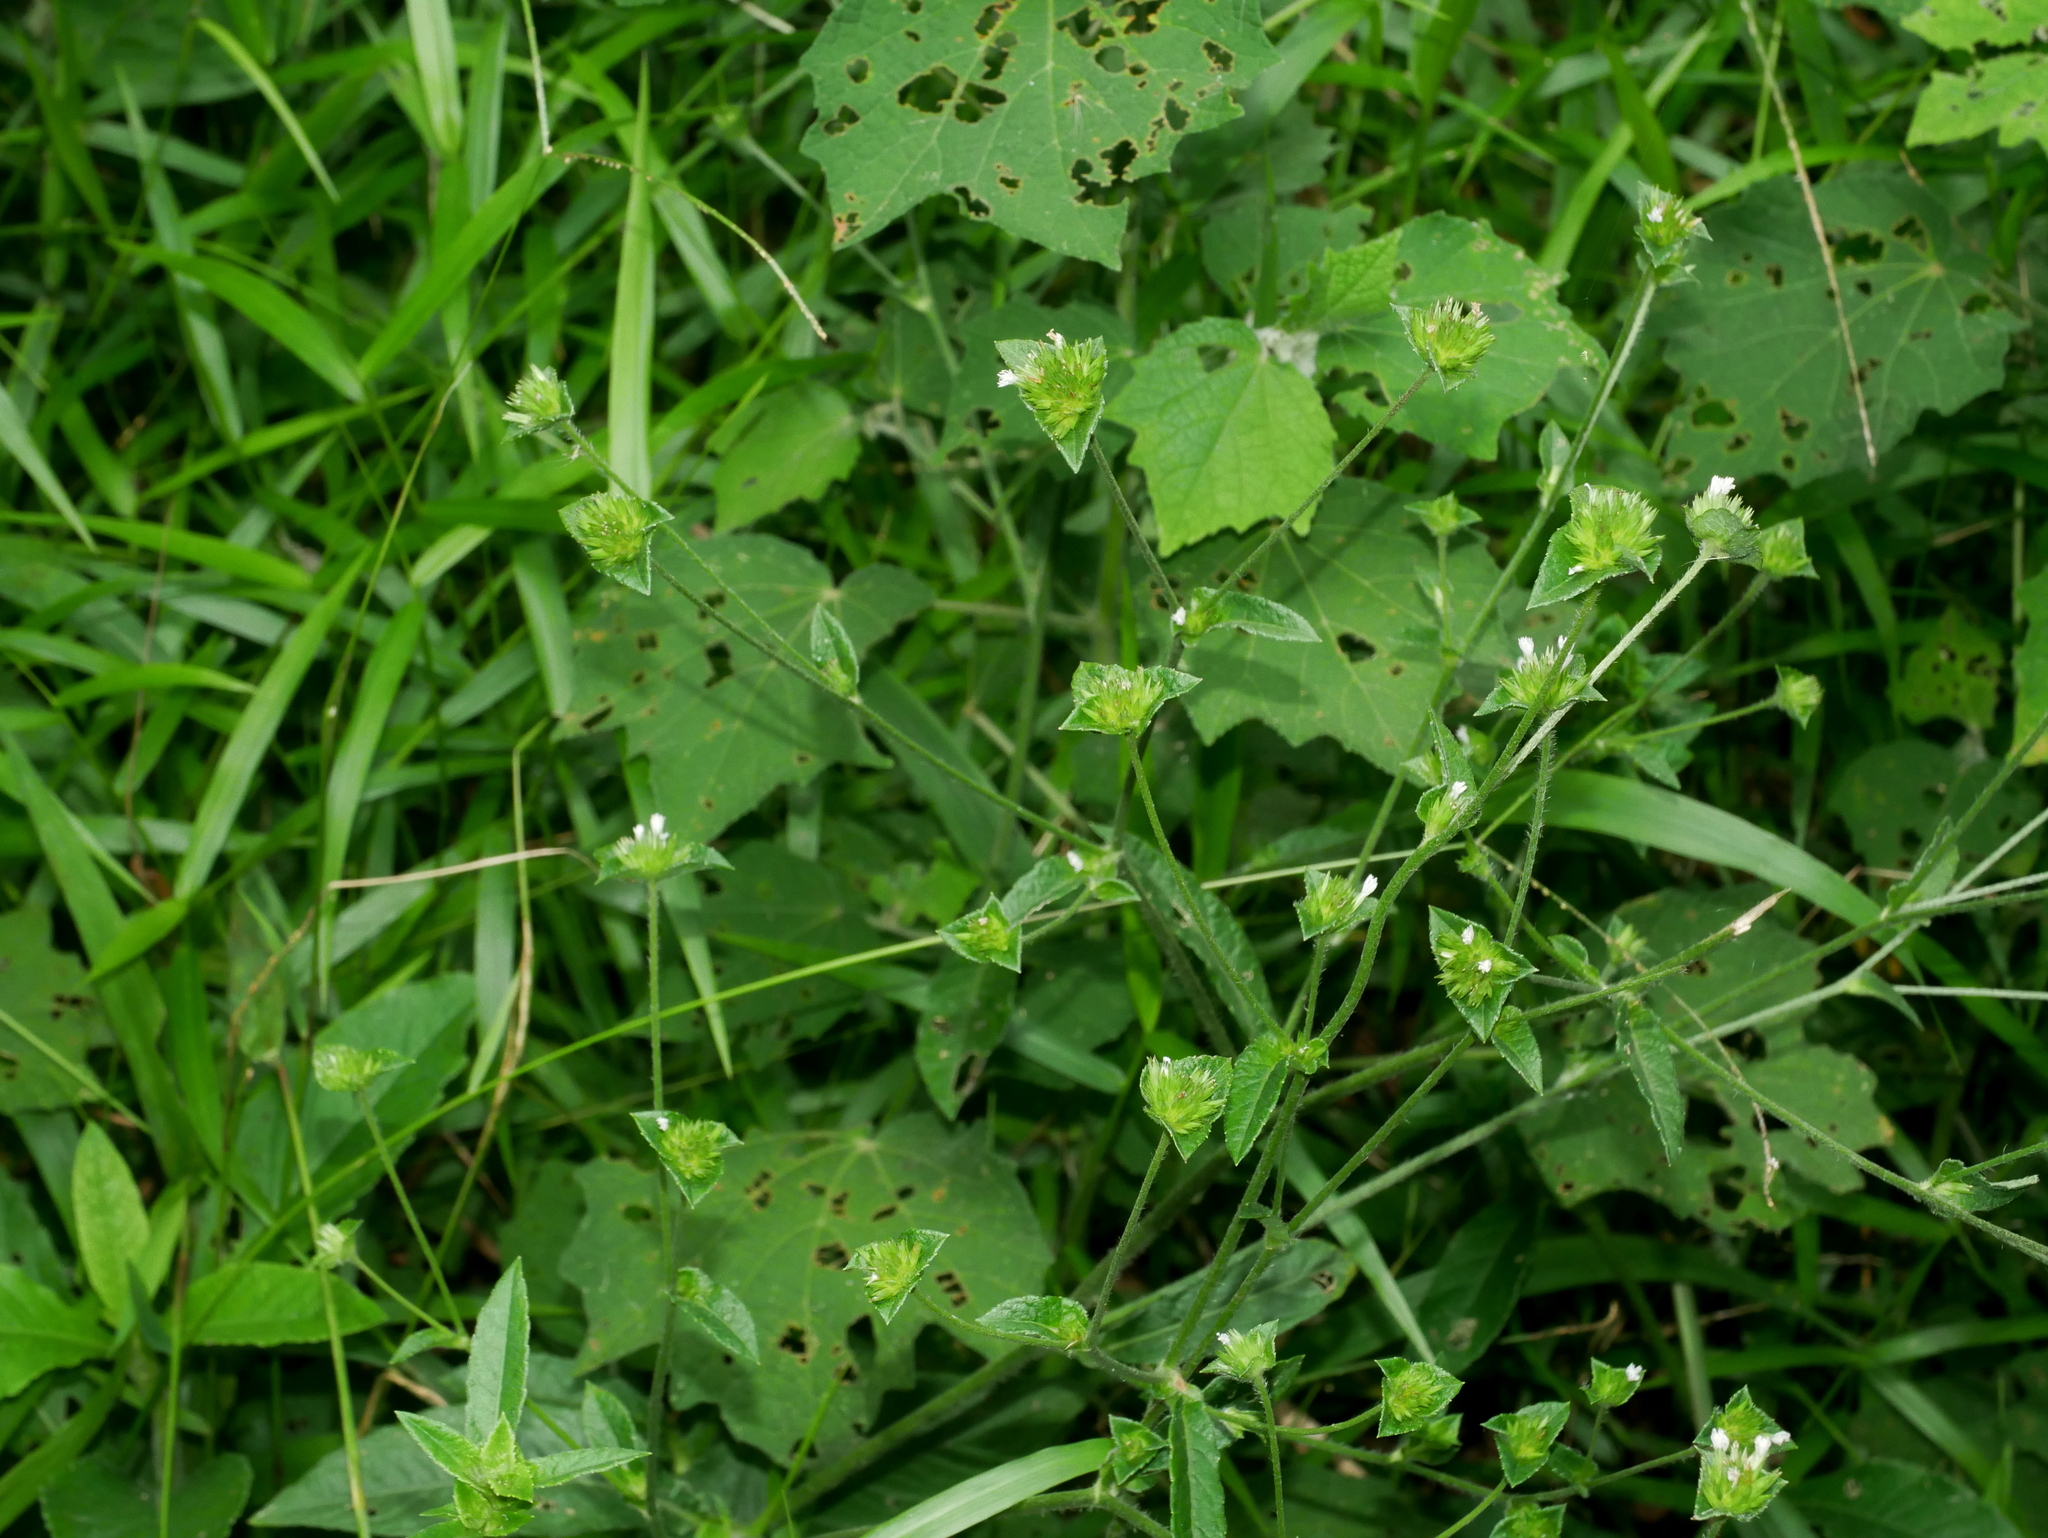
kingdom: Plantae
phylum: Tracheophyta
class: Magnoliopsida
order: Asterales
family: Asteraceae
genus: Elephantopus
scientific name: Elephantopus mollis
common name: Soft elephantsfoot
